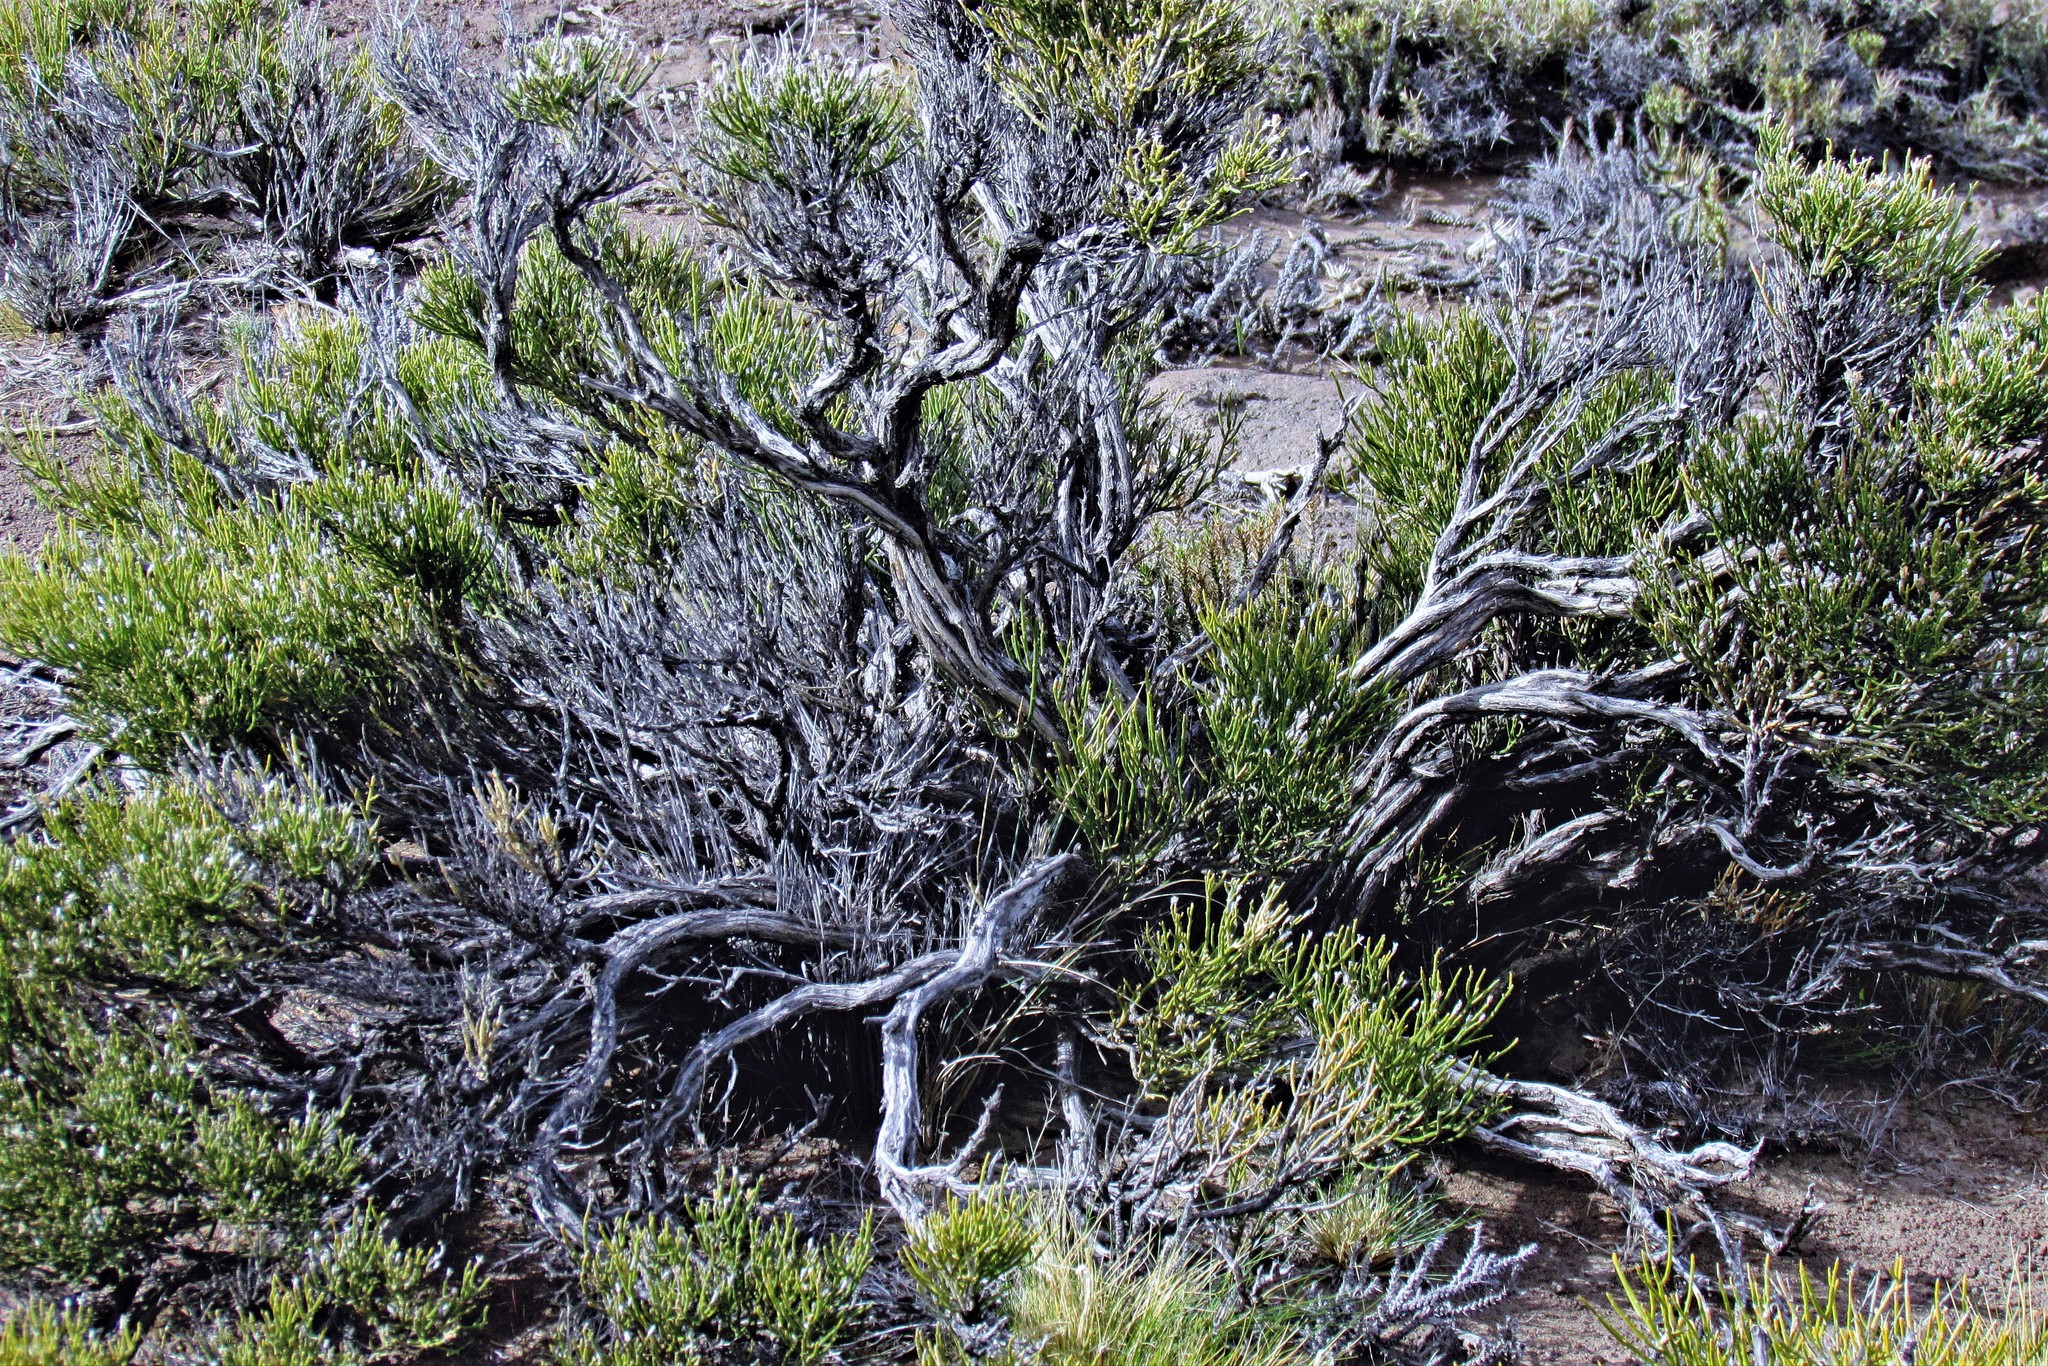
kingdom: Plantae
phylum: Tracheophyta
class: Gnetopsida
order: Ephedrales
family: Ephedraceae
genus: Ephedra
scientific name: Ephedra ochreata
